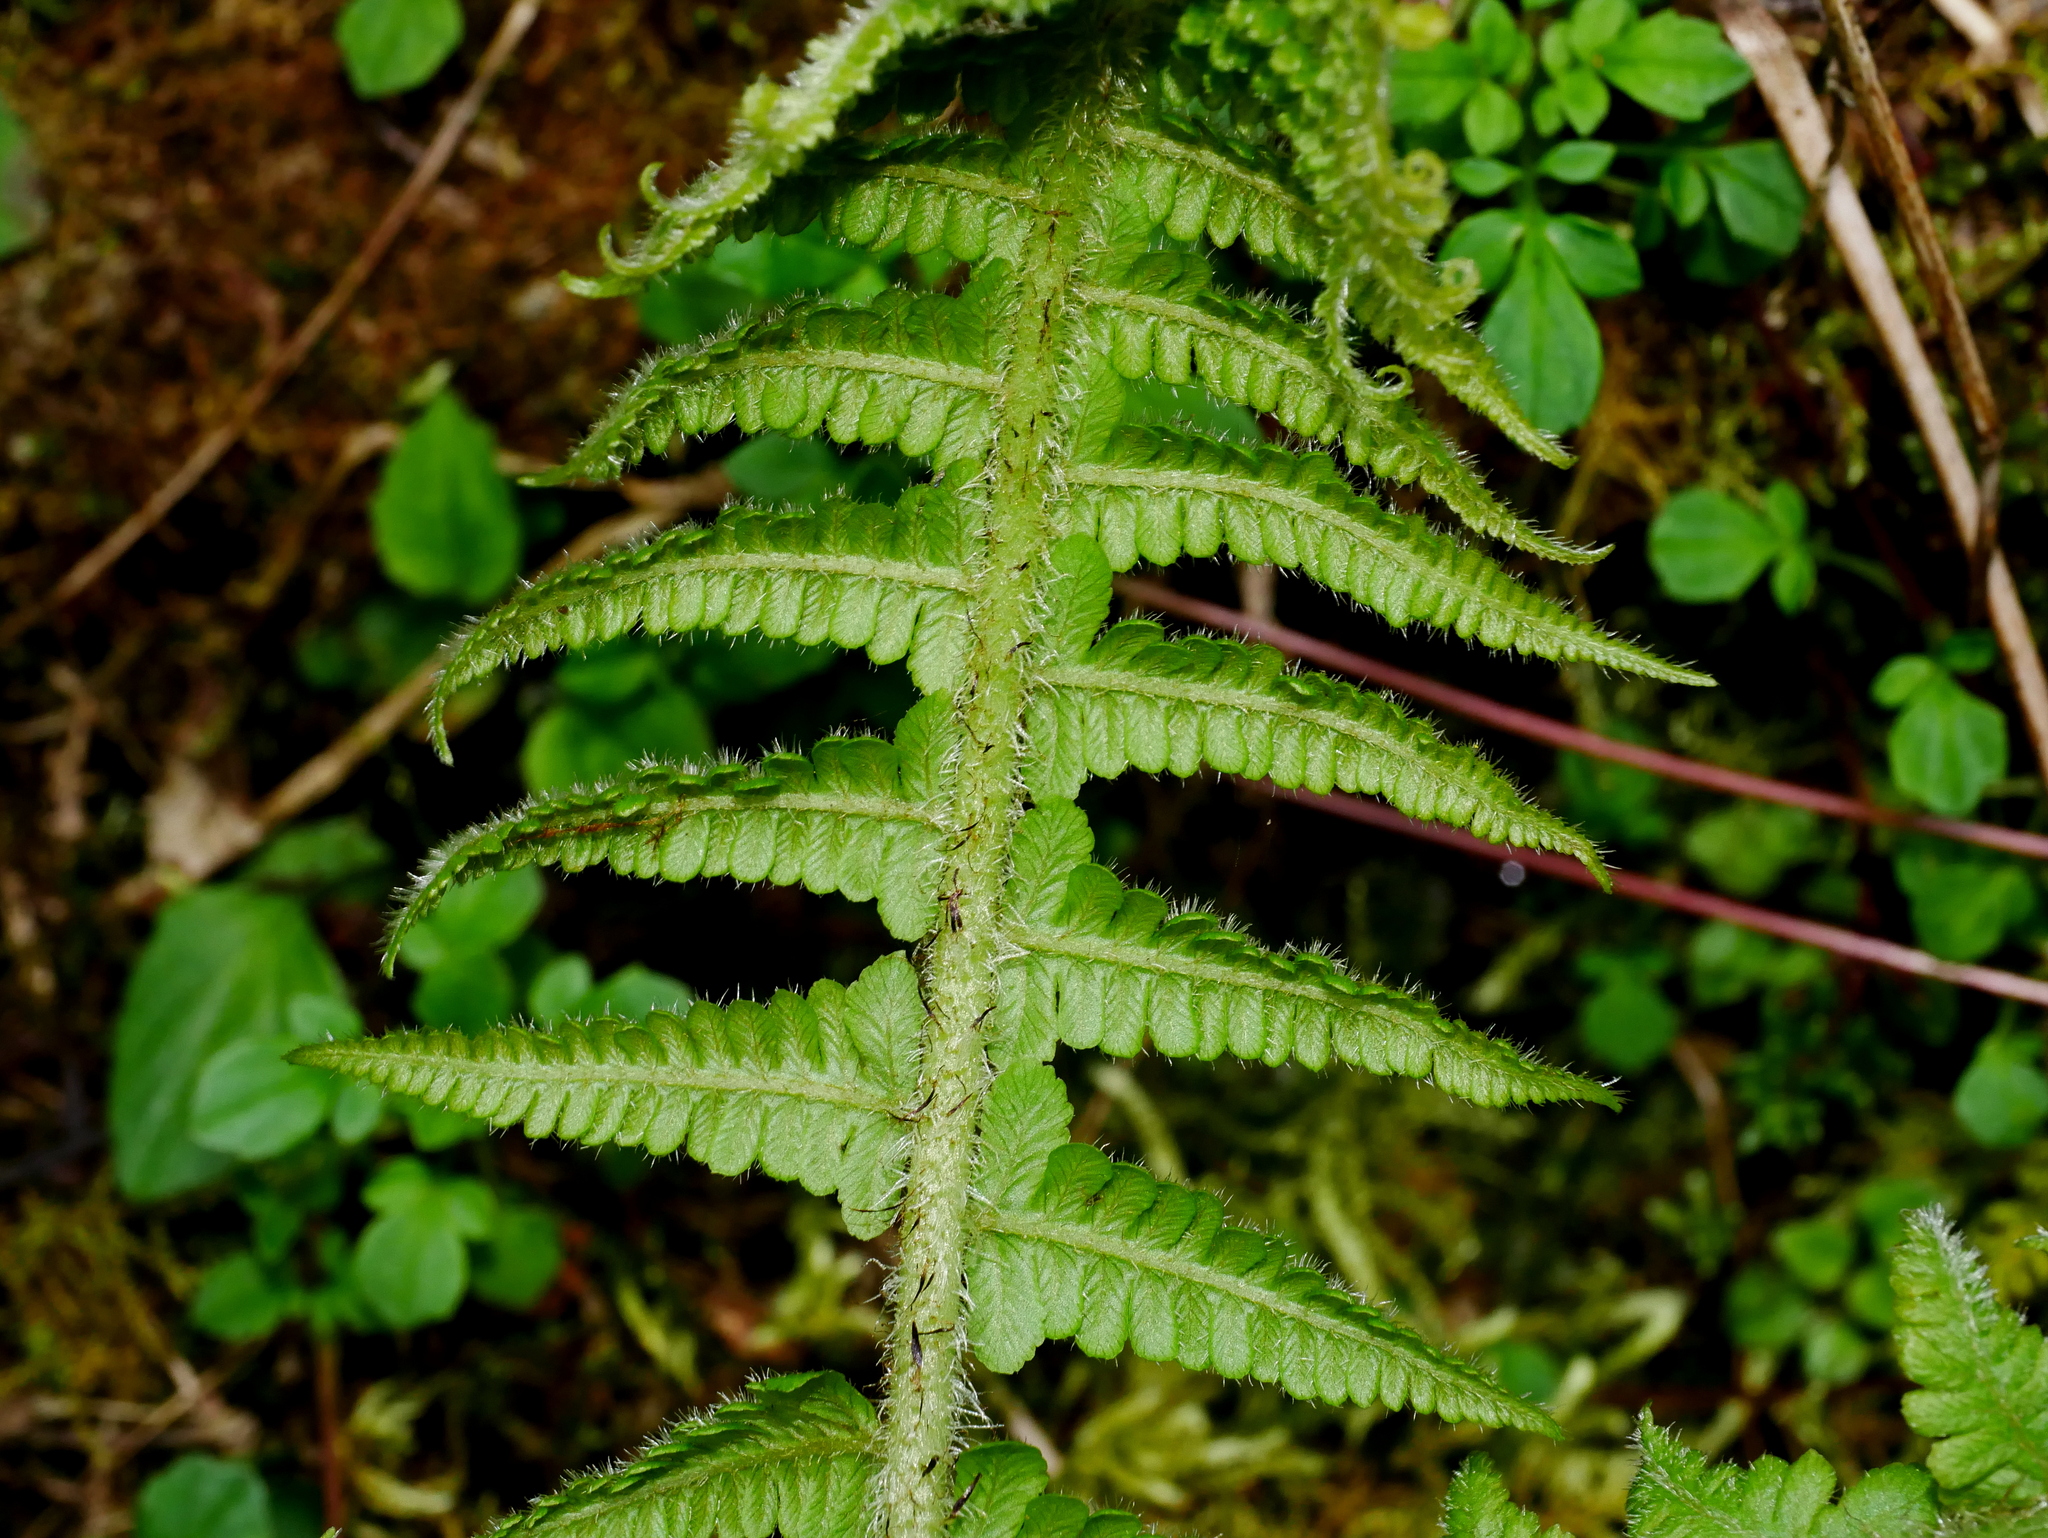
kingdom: Plantae
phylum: Tracheophyta
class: Polypodiopsida
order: Polypodiales
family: Athyriaceae
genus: Deparia
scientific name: Deparia jiulungensis
